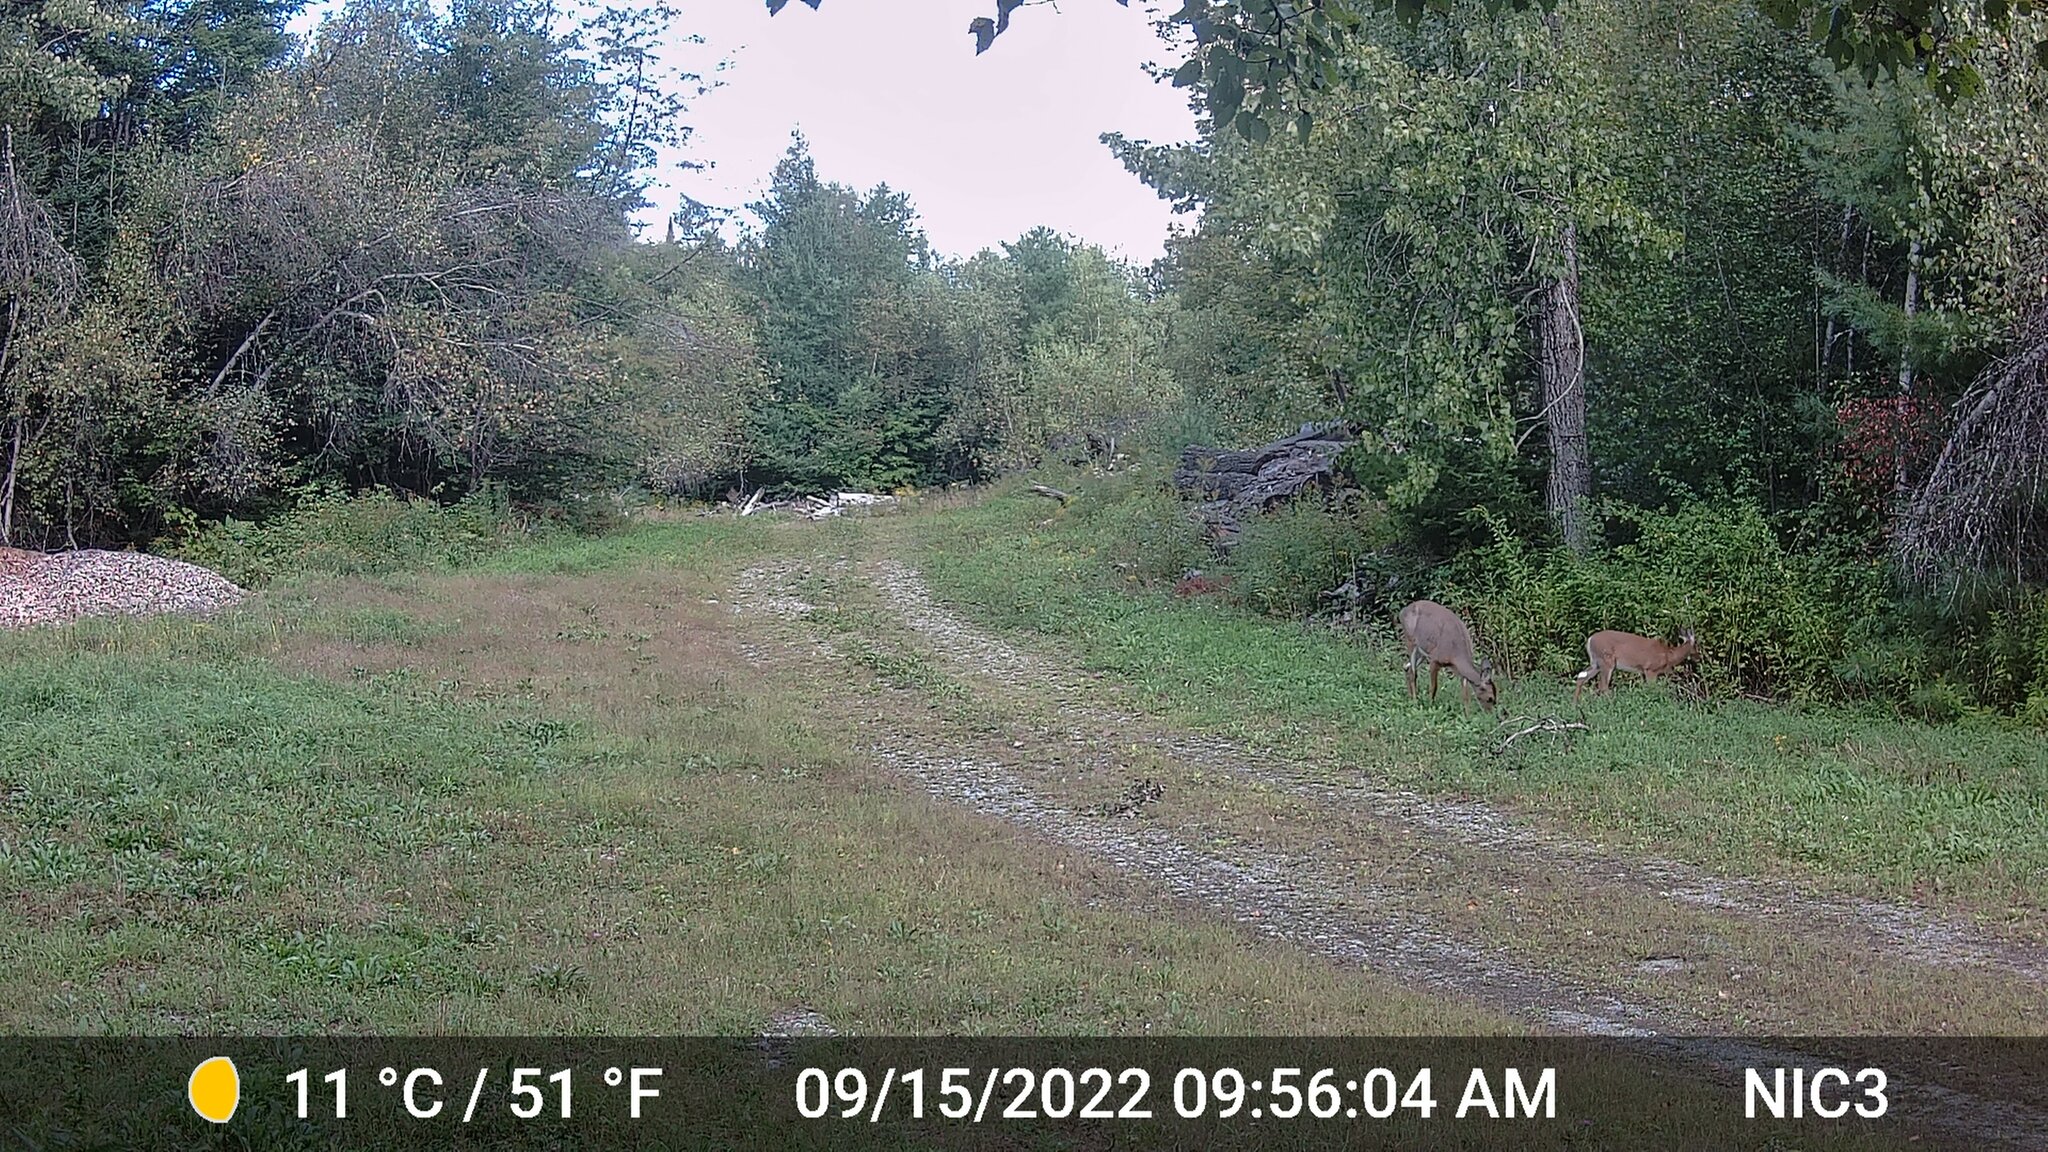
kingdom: Animalia
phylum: Chordata
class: Mammalia
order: Artiodactyla
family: Cervidae
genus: Odocoileus
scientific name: Odocoileus virginianus
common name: White-tailed deer
